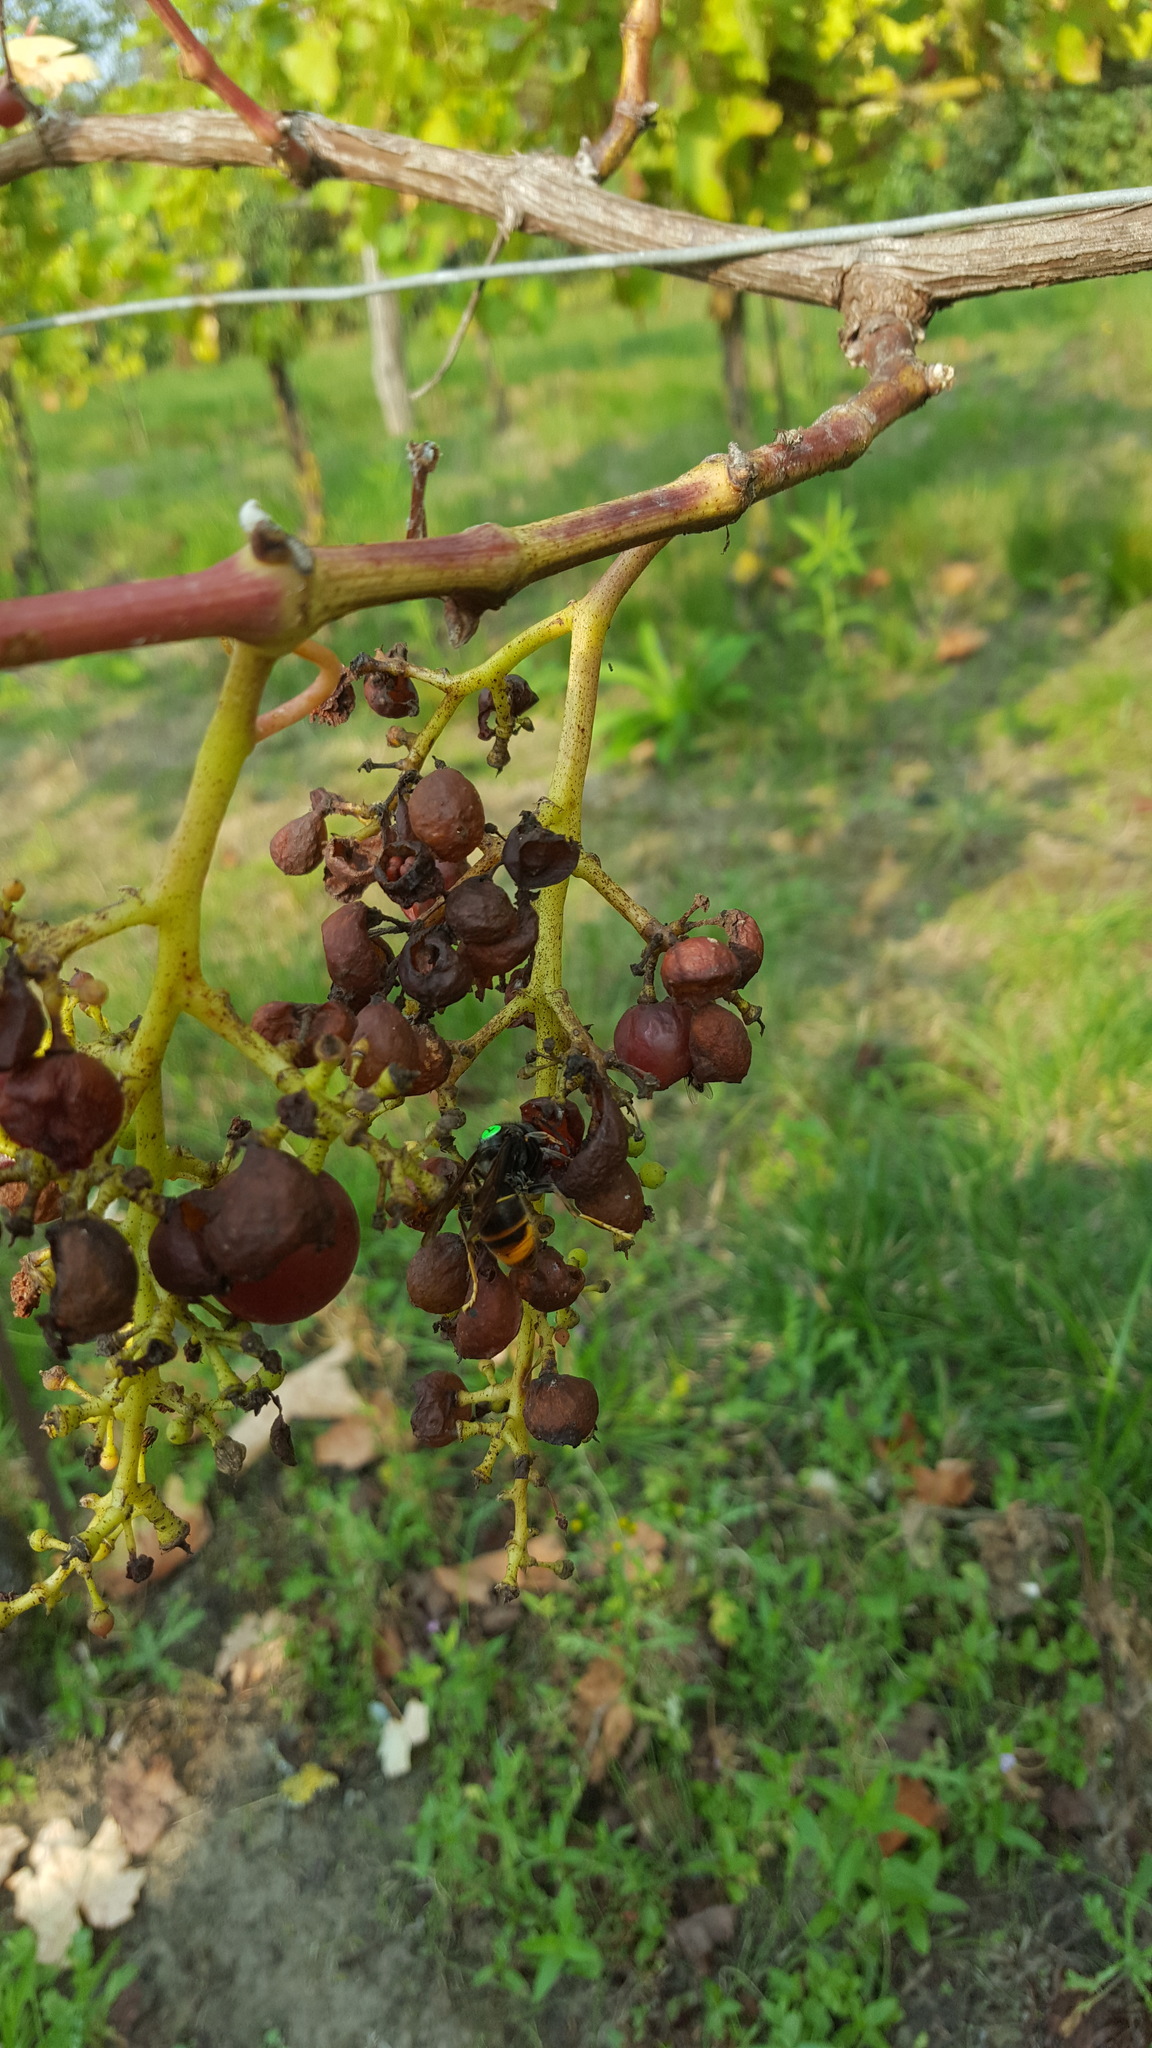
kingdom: Animalia
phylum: Arthropoda
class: Insecta
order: Hymenoptera
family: Vespidae
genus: Vespa
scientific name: Vespa velutina
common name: Asian hornet
